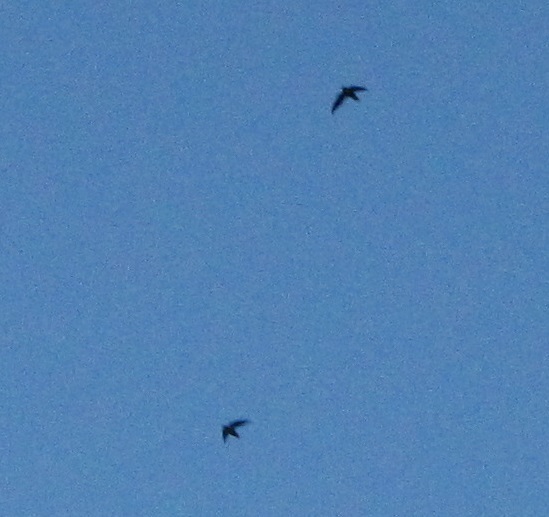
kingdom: Animalia
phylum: Chordata
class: Aves
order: Apodiformes
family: Apodidae
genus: Chaetura
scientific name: Chaetura pelagica
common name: Chimney swift
